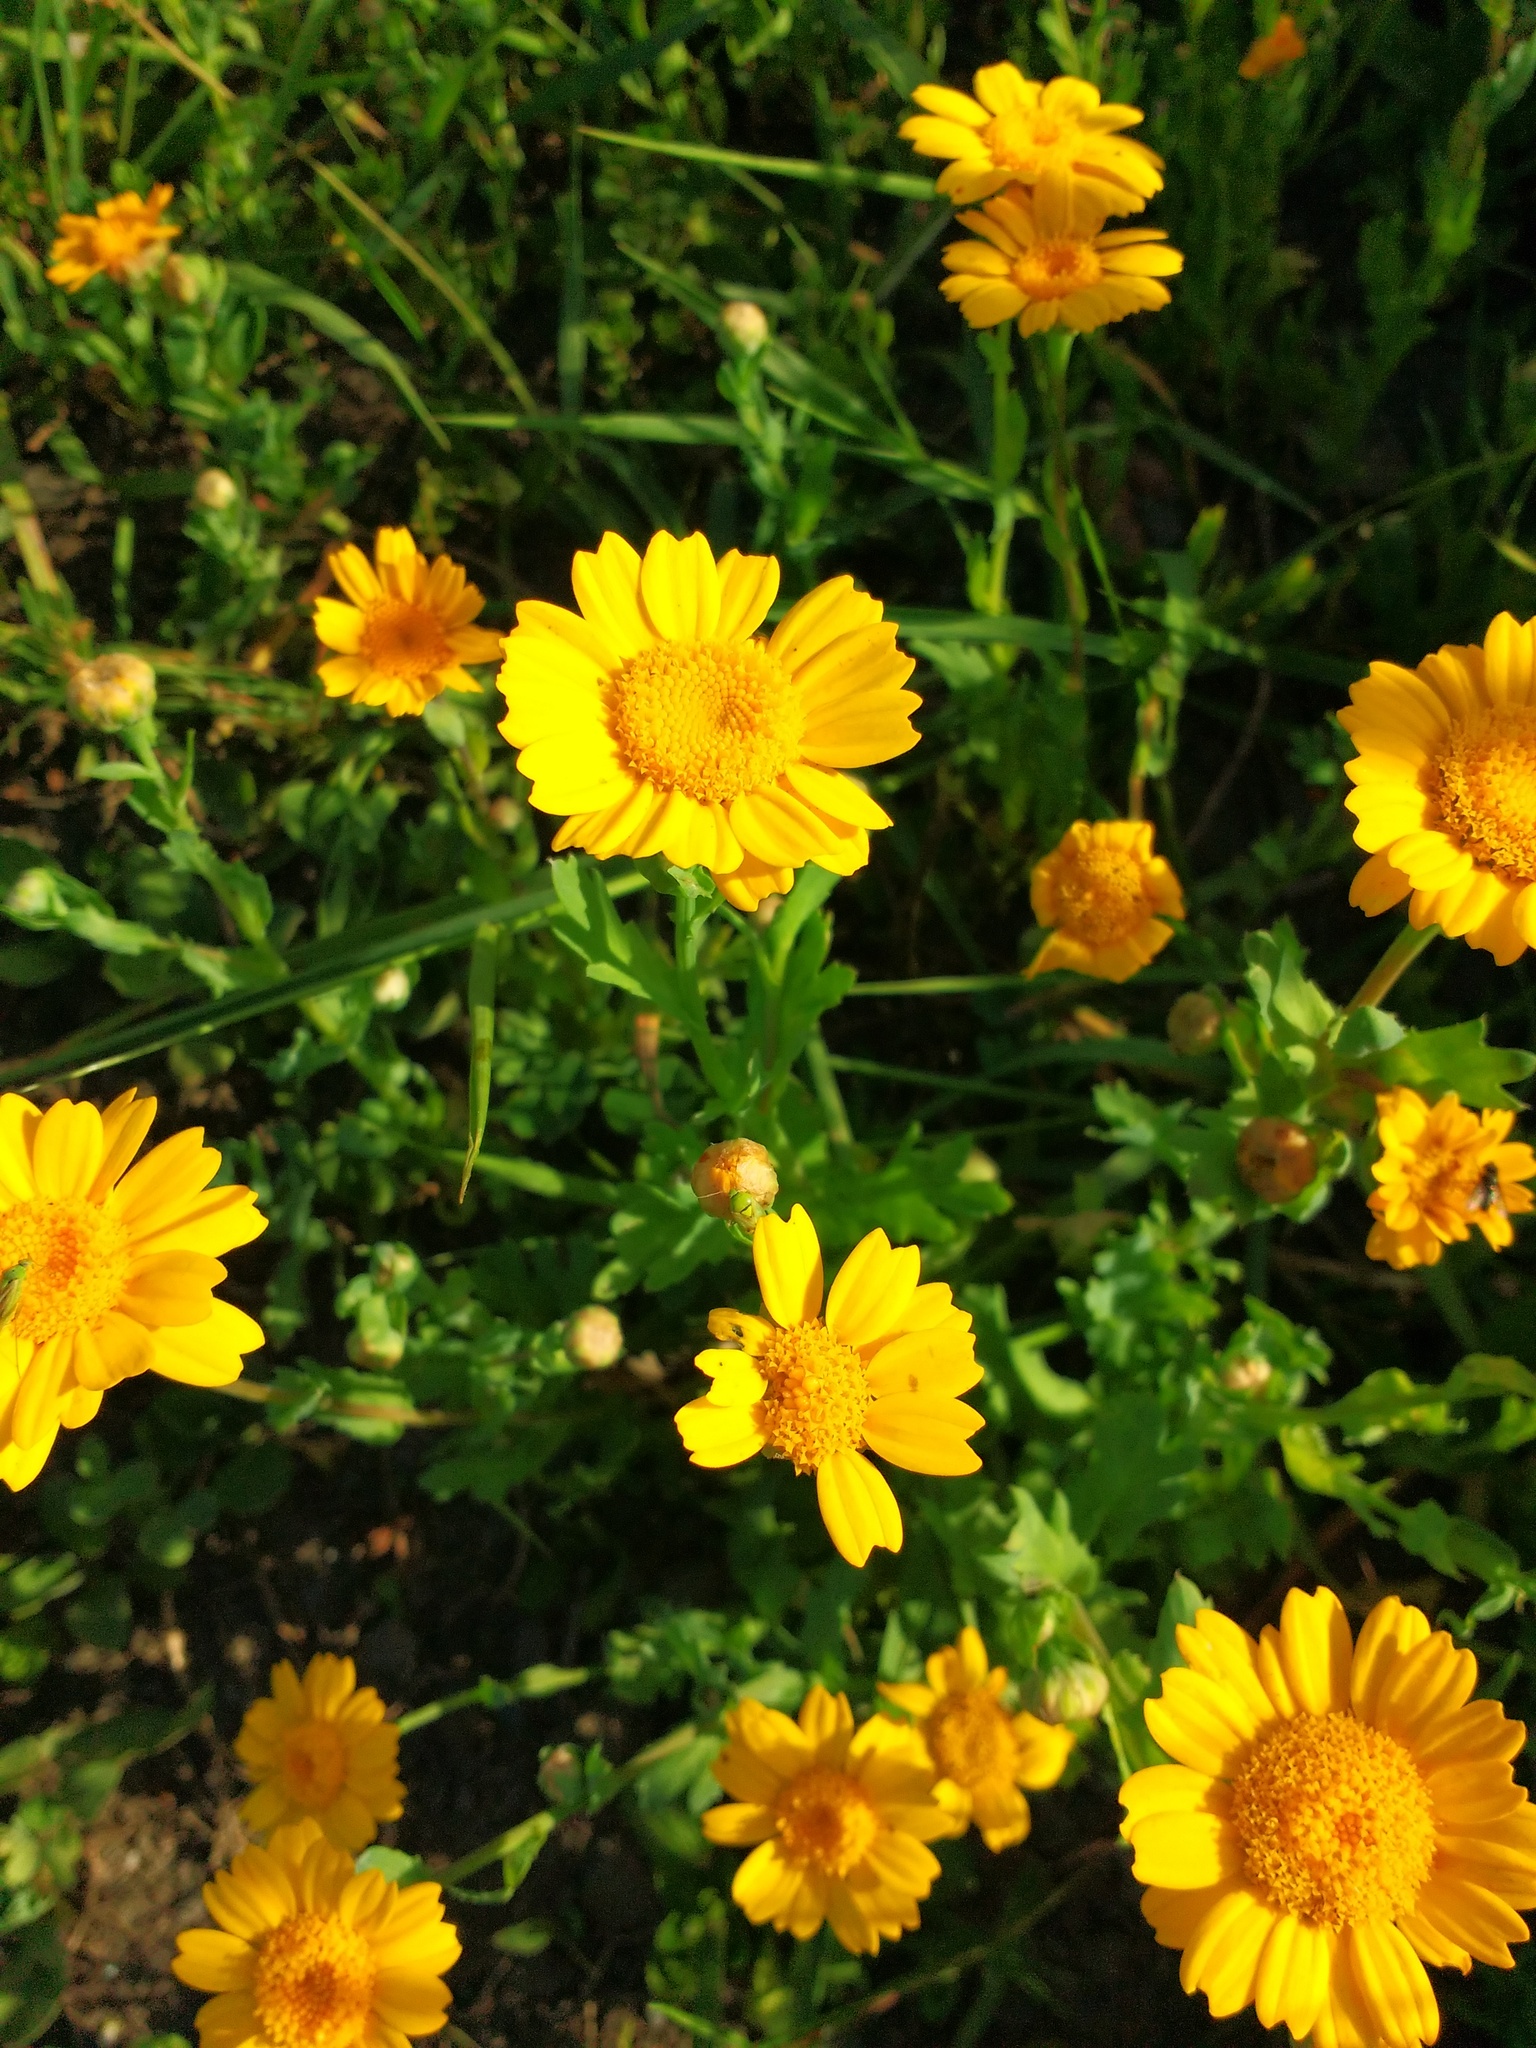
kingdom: Plantae
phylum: Tracheophyta
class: Magnoliopsida
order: Asterales
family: Asteraceae
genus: Glebionis
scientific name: Glebionis segetum
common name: Corndaisy
